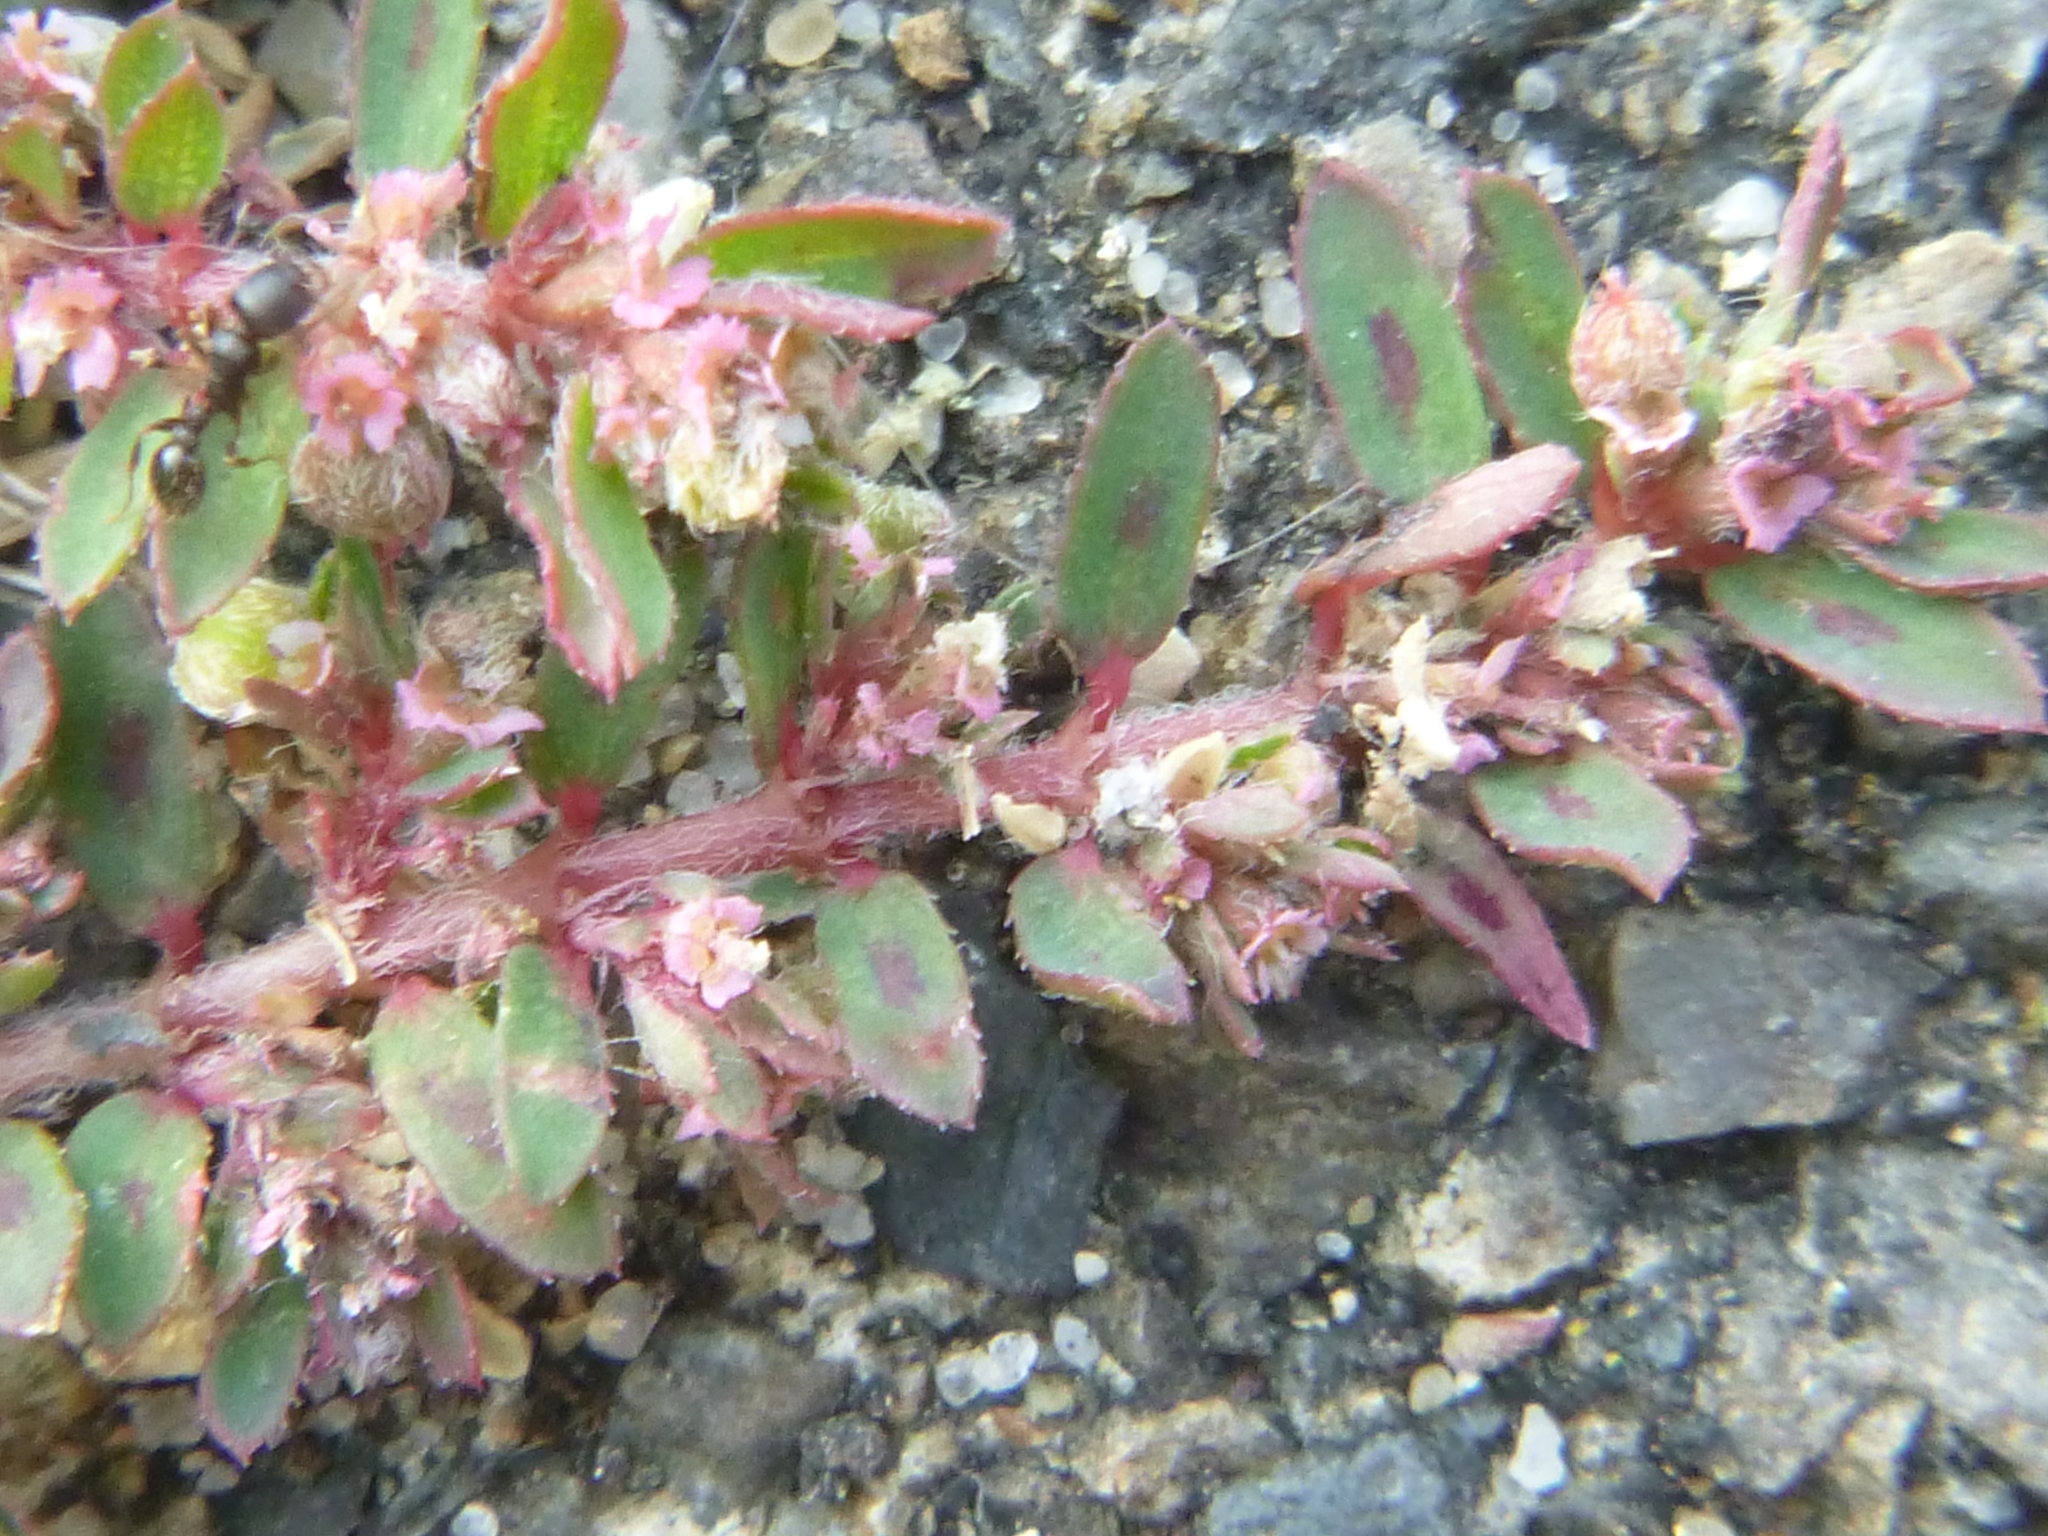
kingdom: Plantae
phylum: Tracheophyta
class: Magnoliopsida
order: Malpighiales
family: Euphorbiaceae
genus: Euphorbia
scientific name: Euphorbia maculata
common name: Spotted spurge
